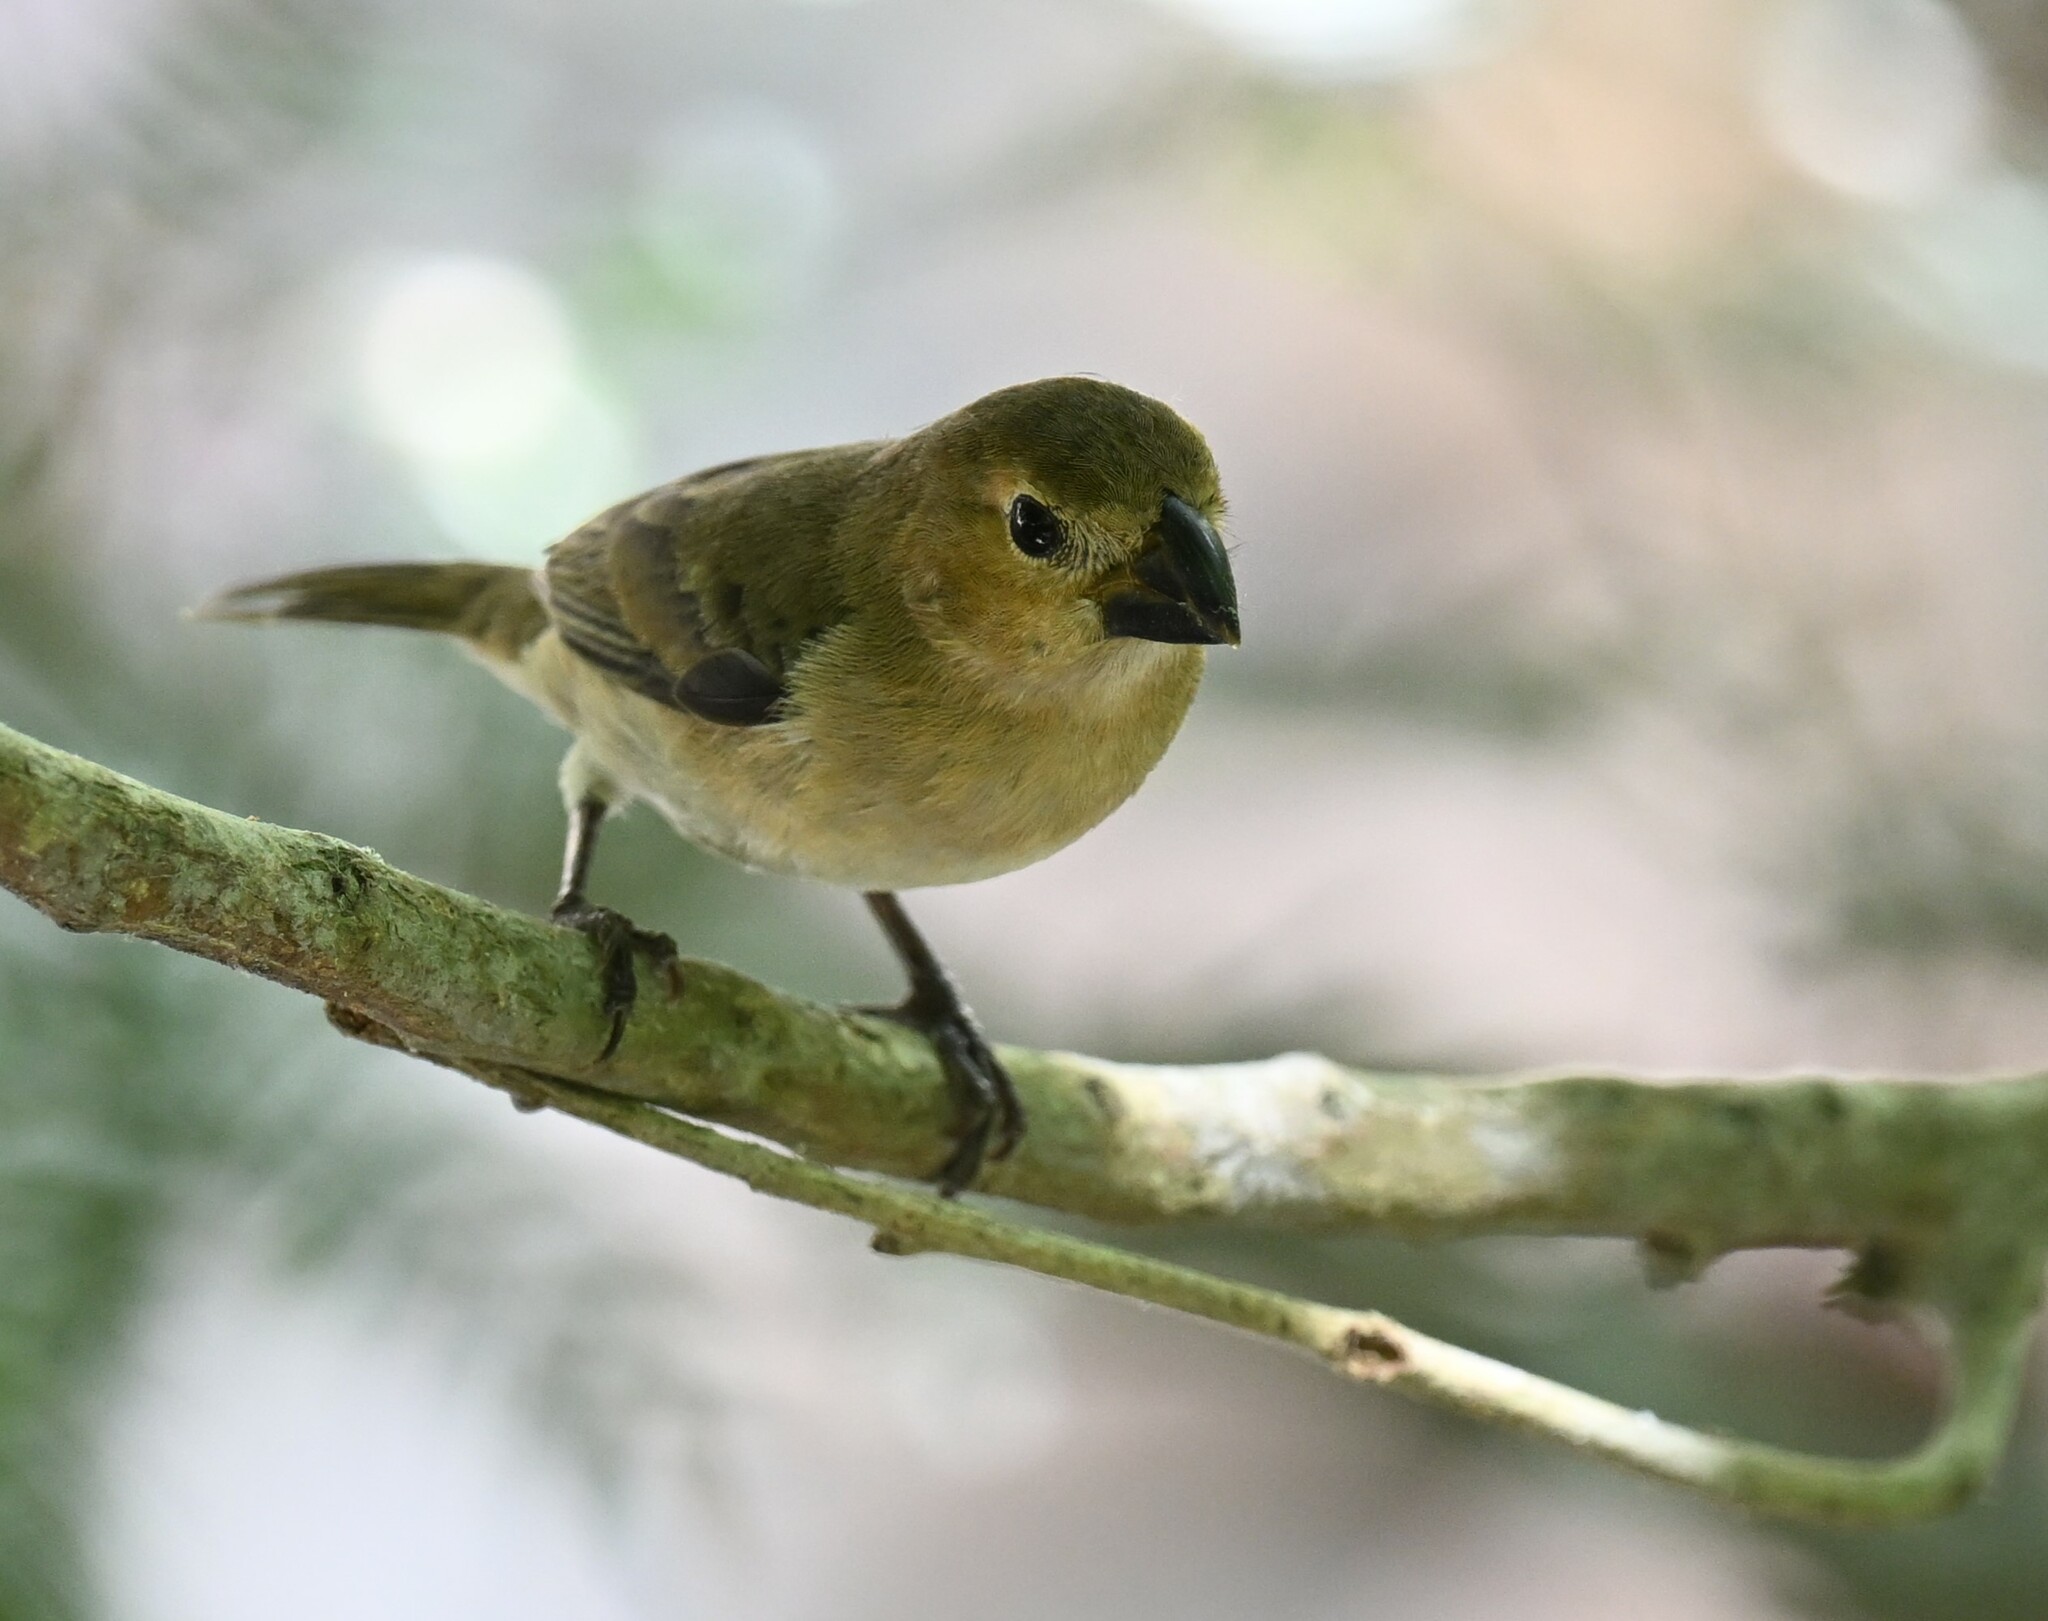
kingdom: Animalia
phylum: Chordata
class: Aves
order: Passeriformes
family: Thraupidae
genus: Sporophila
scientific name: Sporophila intermedia
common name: Grey seedeater
